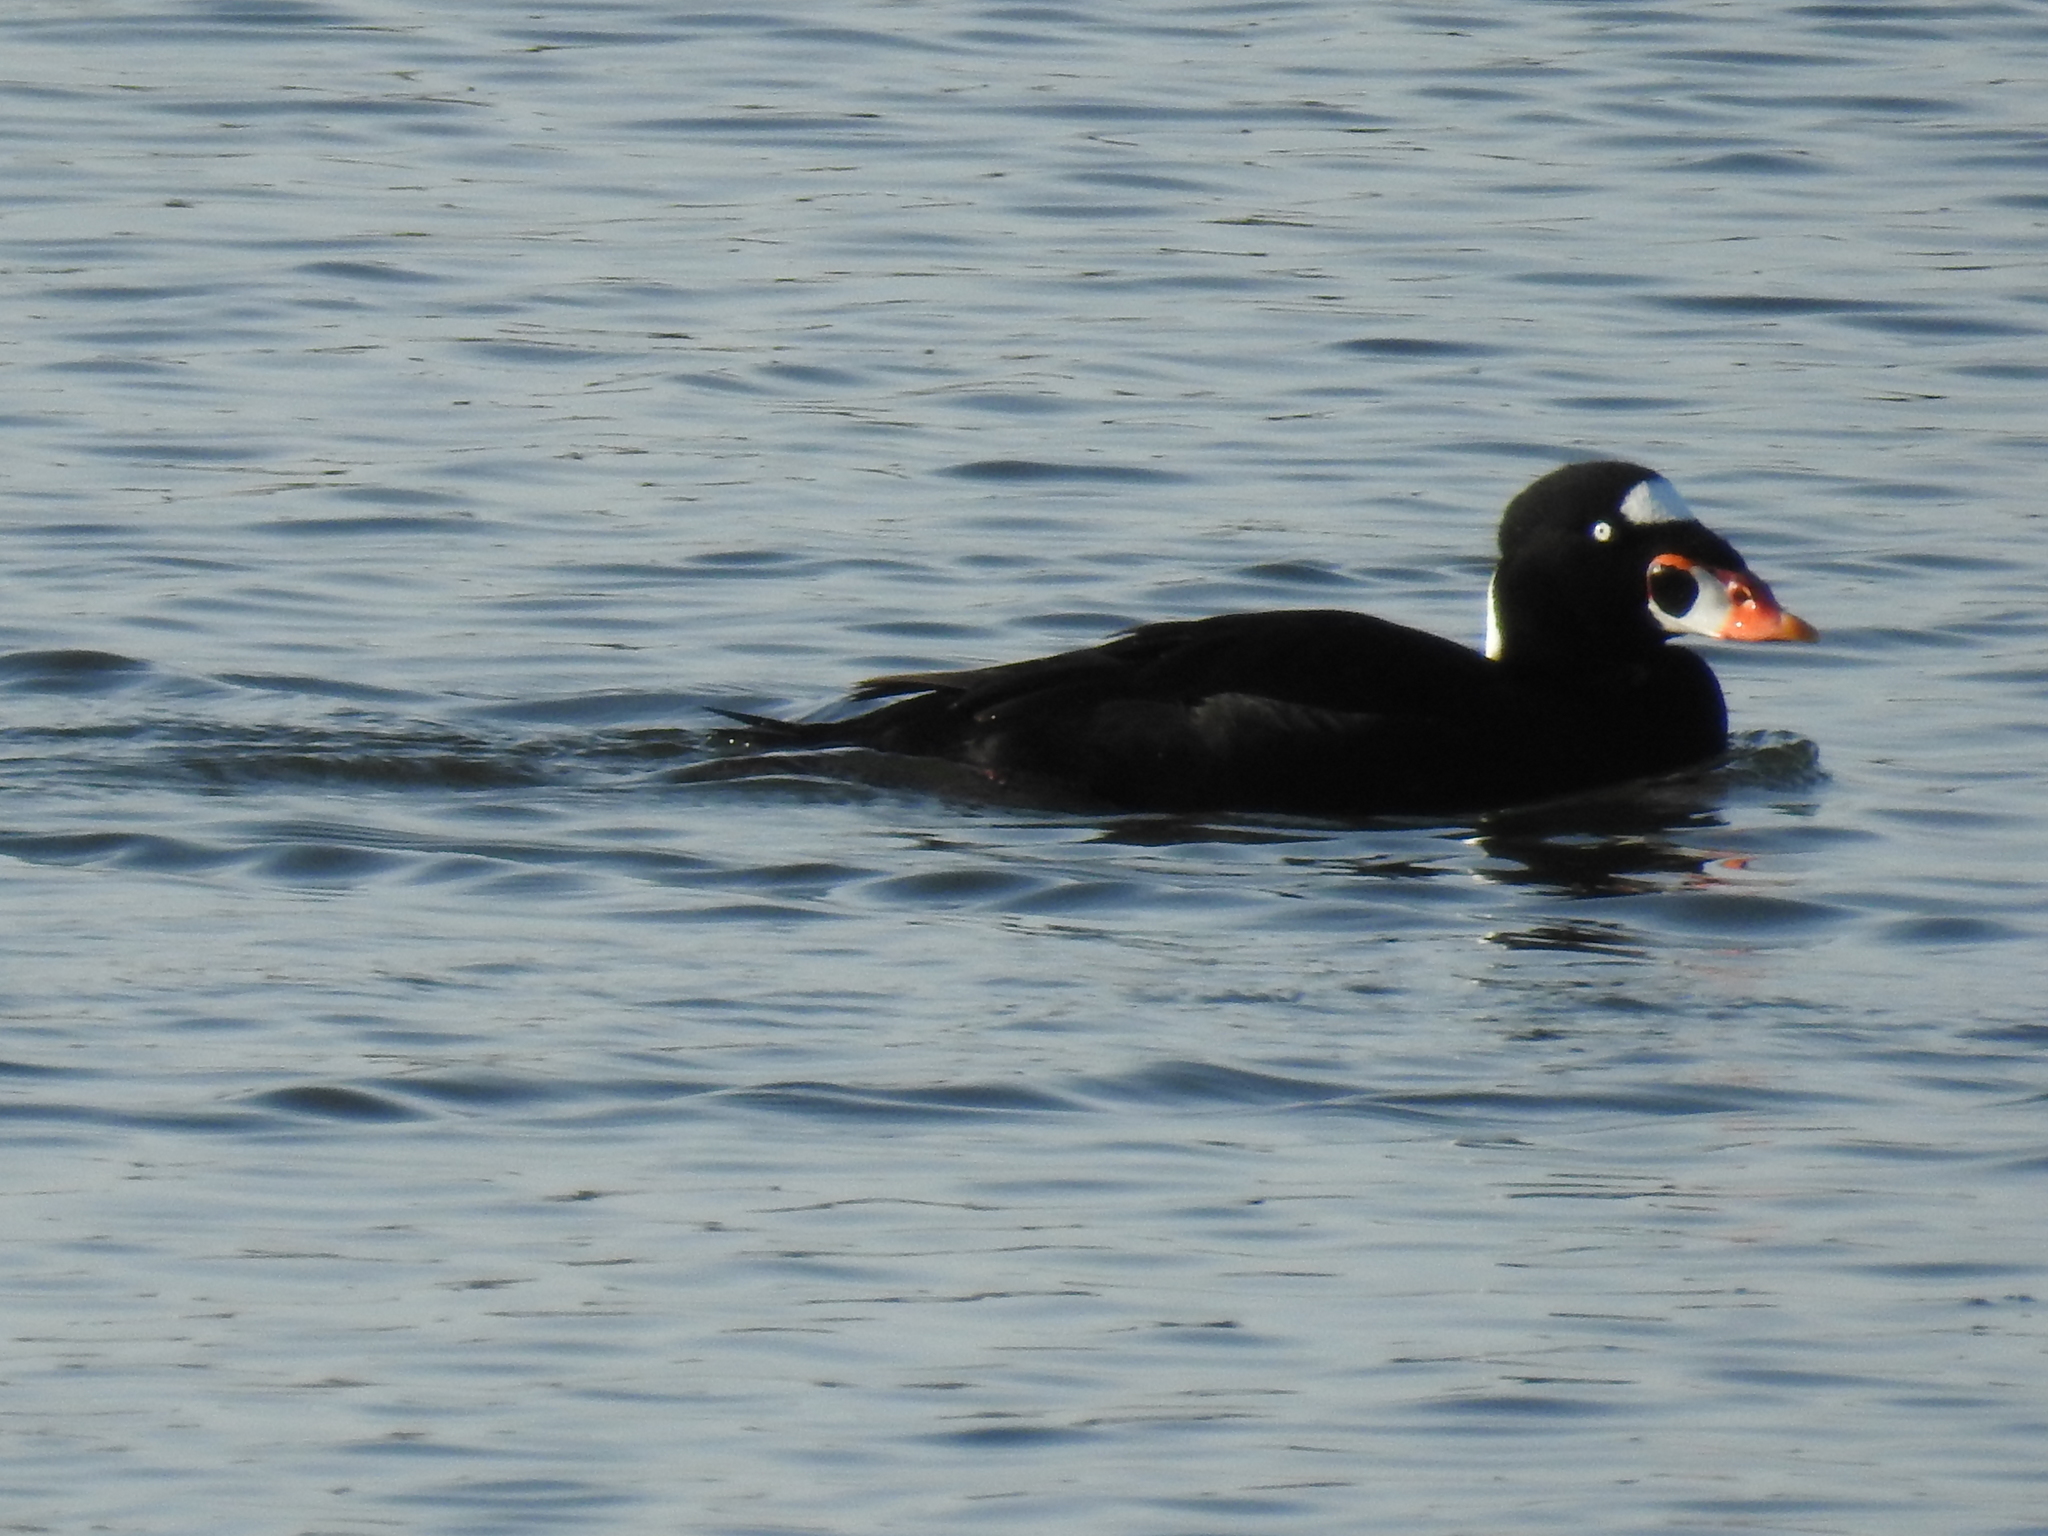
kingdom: Animalia
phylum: Chordata
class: Aves
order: Anseriformes
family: Anatidae
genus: Melanitta
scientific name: Melanitta perspicillata
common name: Surf scoter
